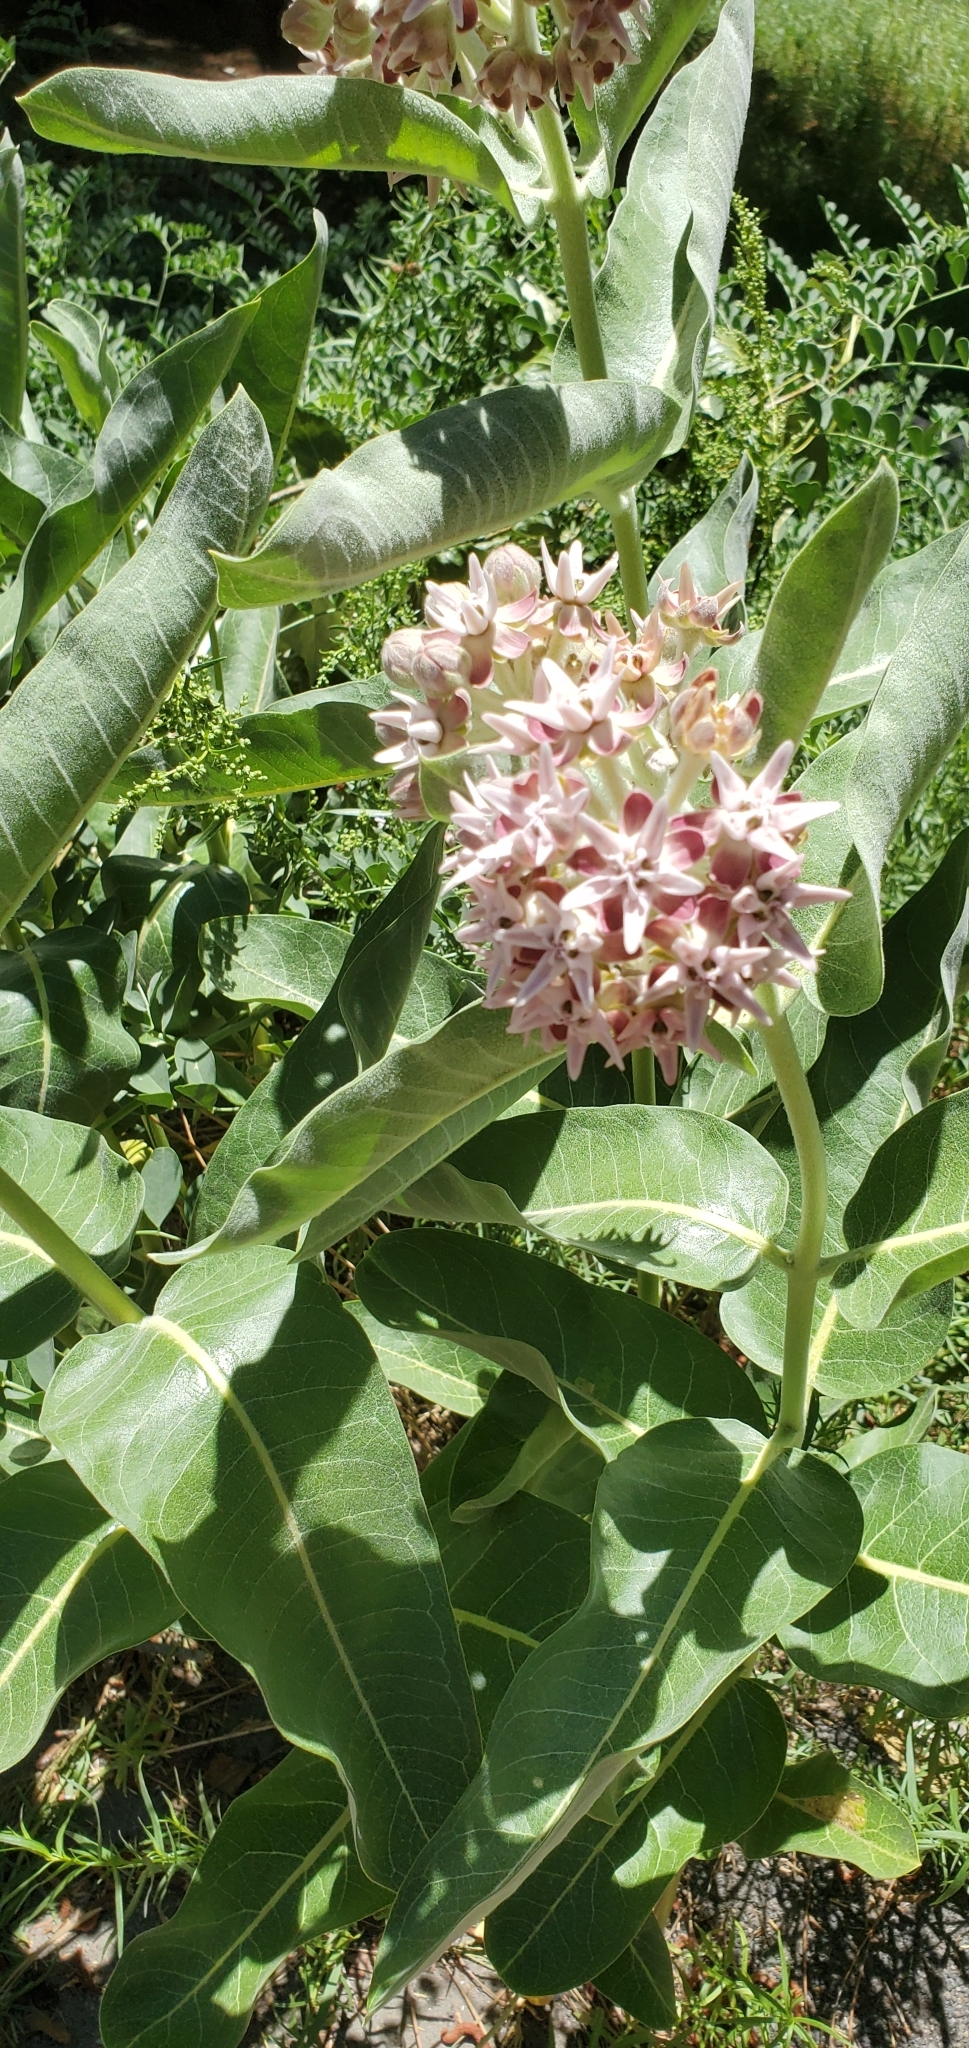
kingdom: Plantae
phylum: Tracheophyta
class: Magnoliopsida
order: Gentianales
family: Apocynaceae
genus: Asclepias
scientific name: Asclepias speciosa
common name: Showy milkweed
